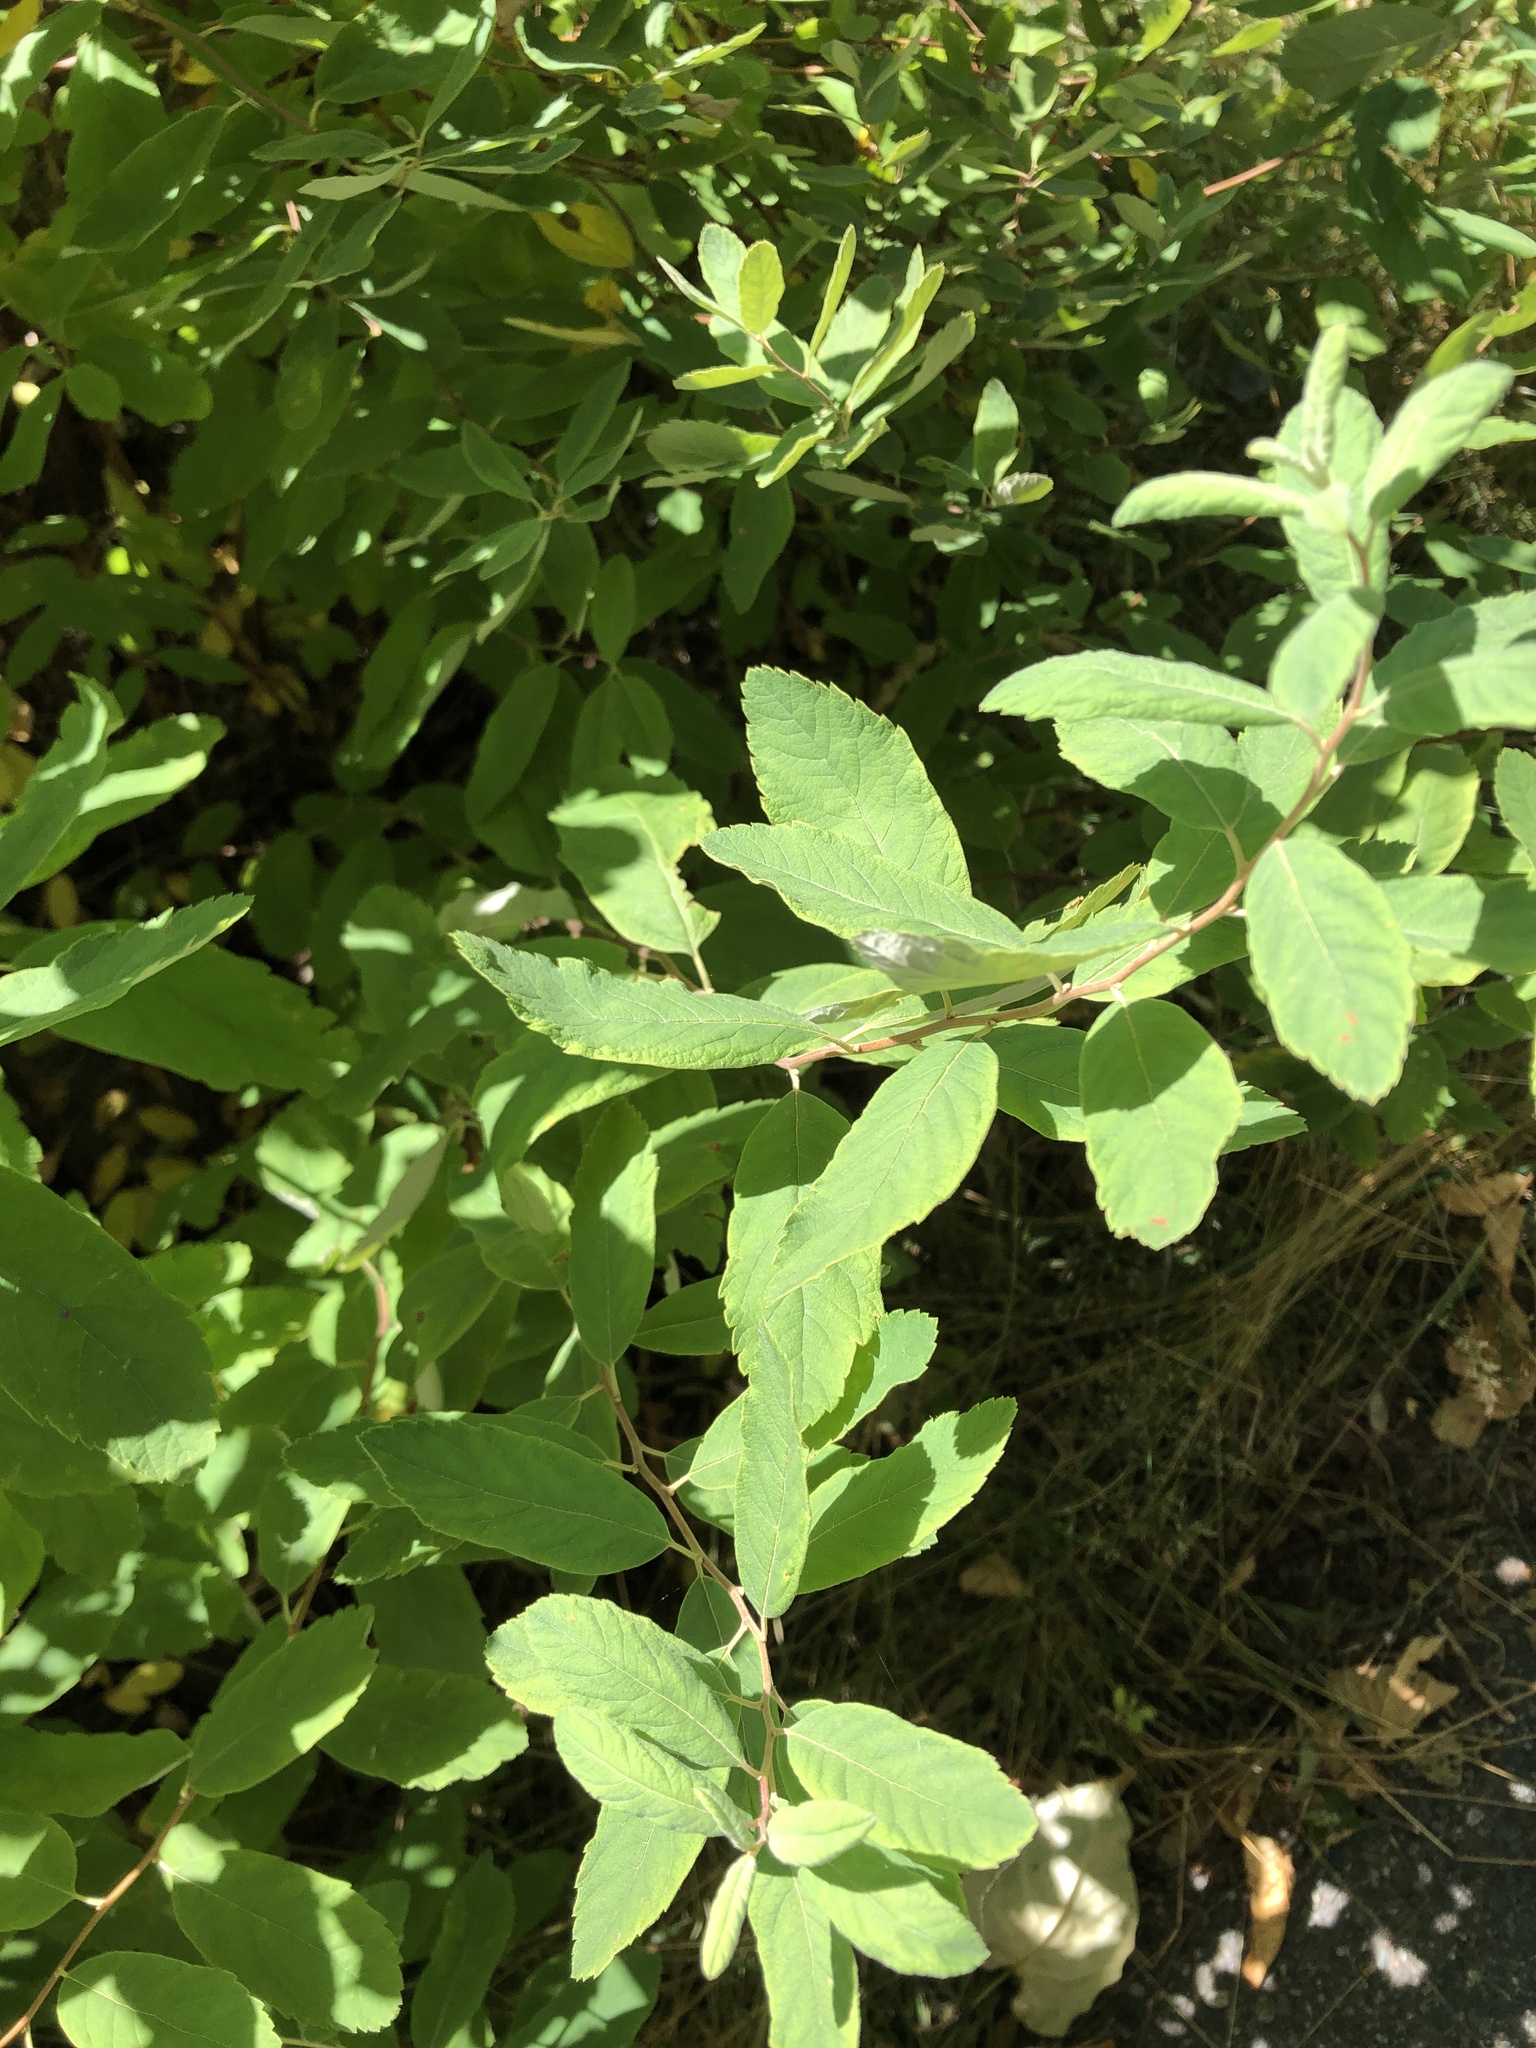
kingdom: Plantae
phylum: Tracheophyta
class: Magnoliopsida
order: Rosales
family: Rosaceae
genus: Spiraea
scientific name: Spiraea douglasii
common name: Steeplebush
